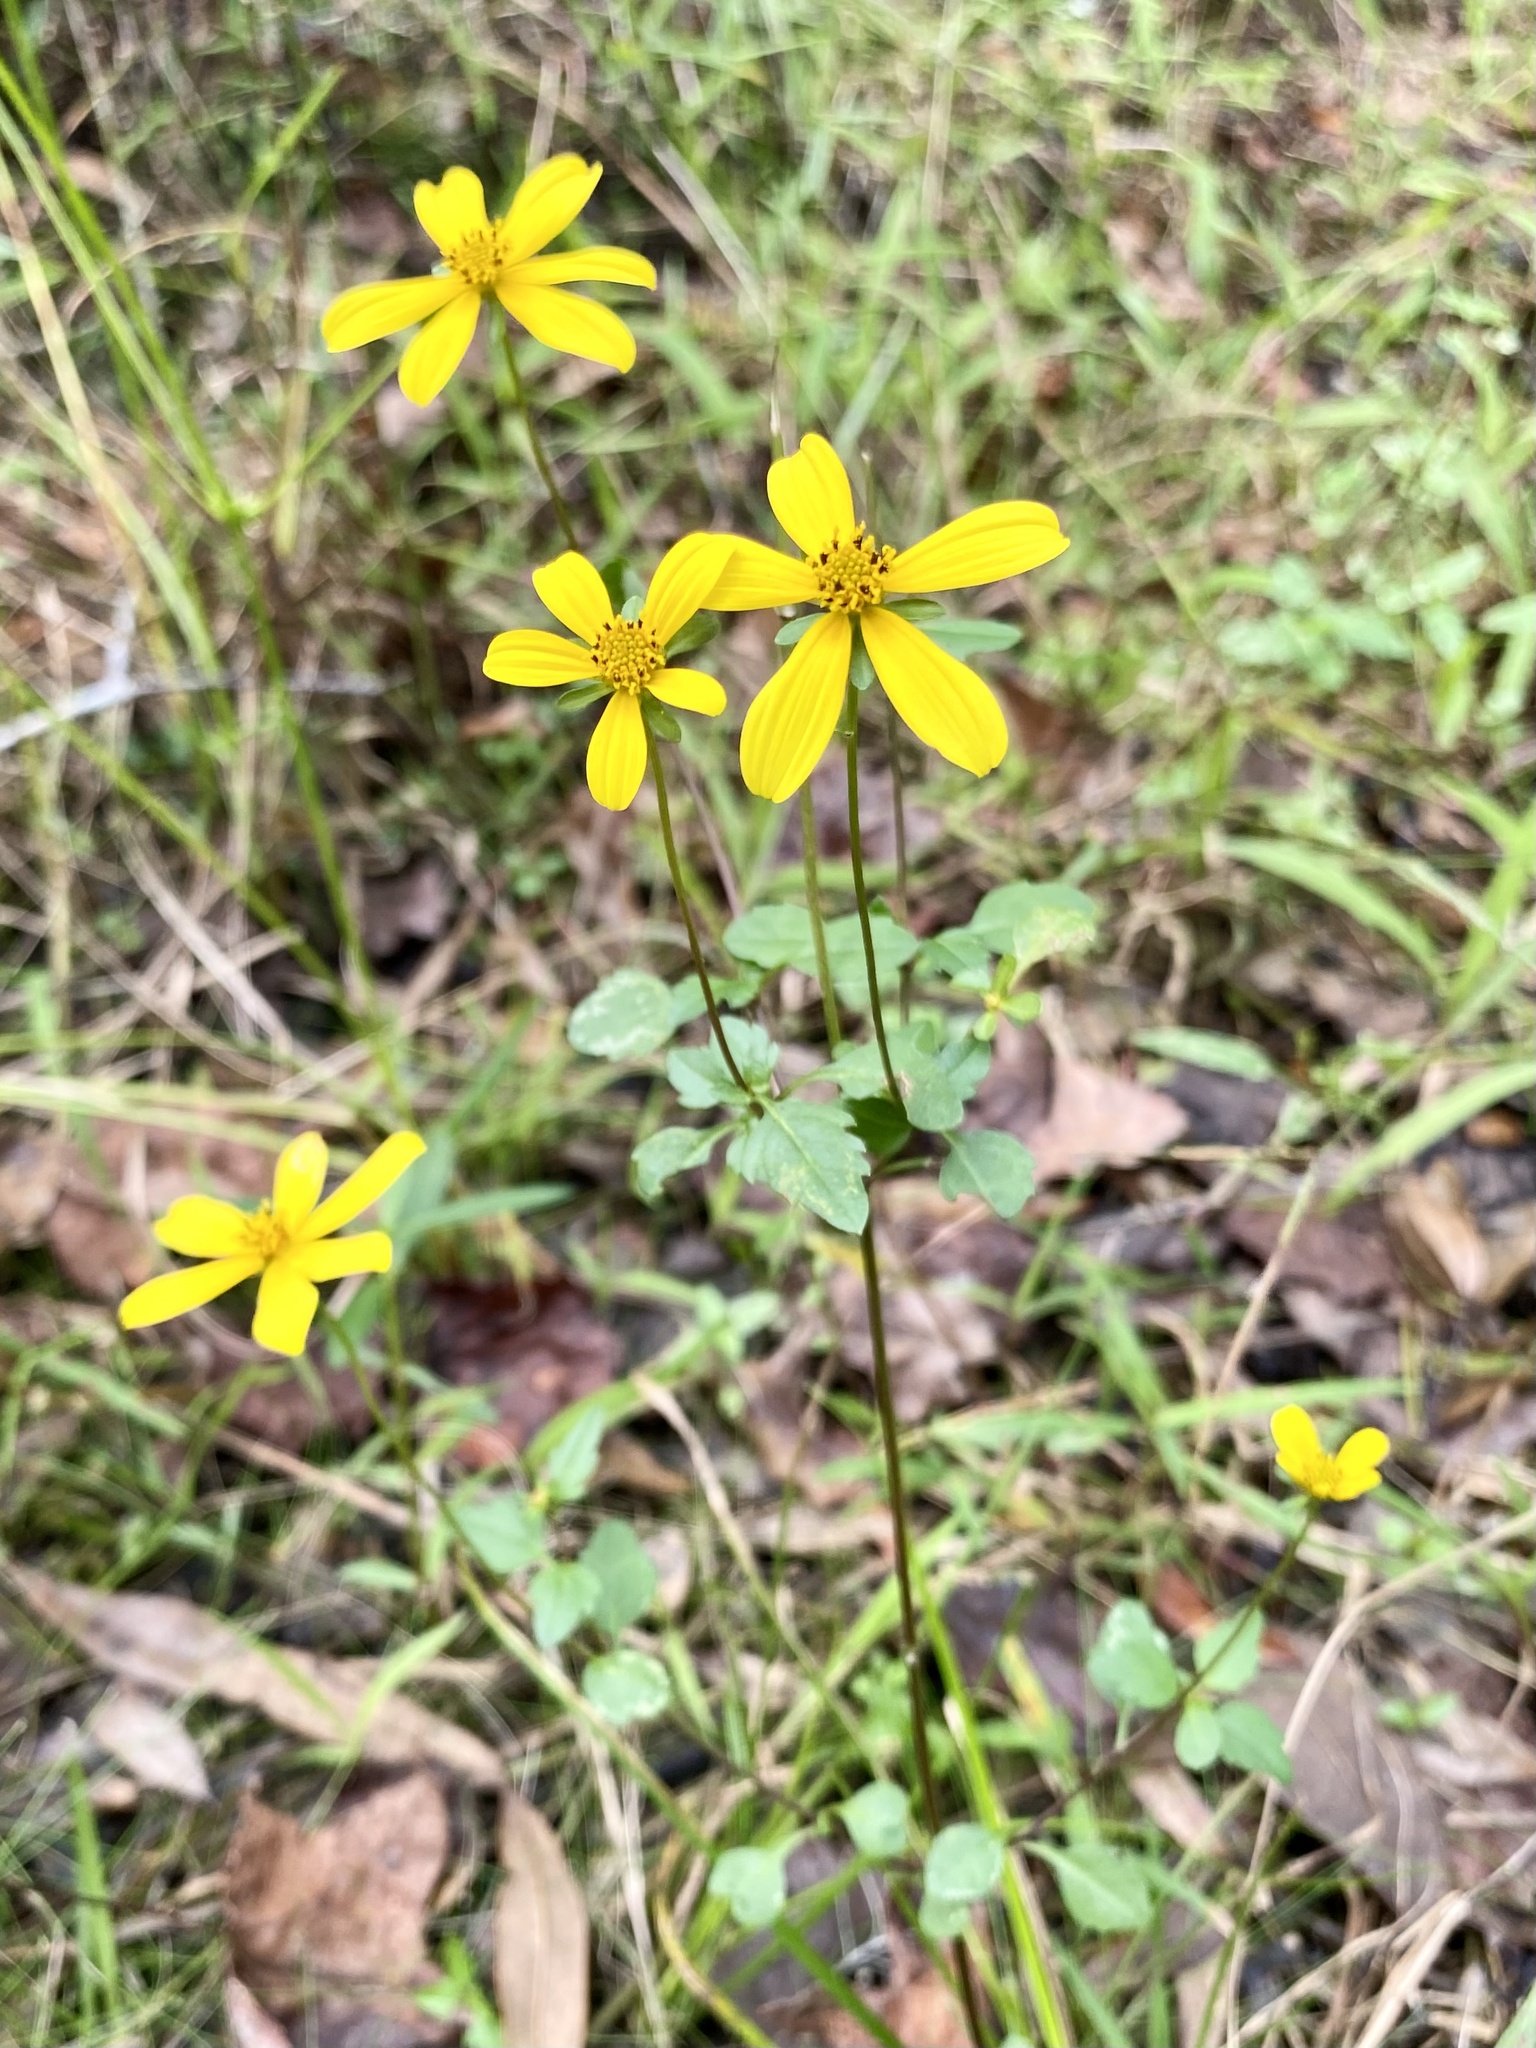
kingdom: Plantae
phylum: Tracheophyta
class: Magnoliopsida
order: Asterales
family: Asteraceae
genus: Bidens
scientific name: Bidens mitis
